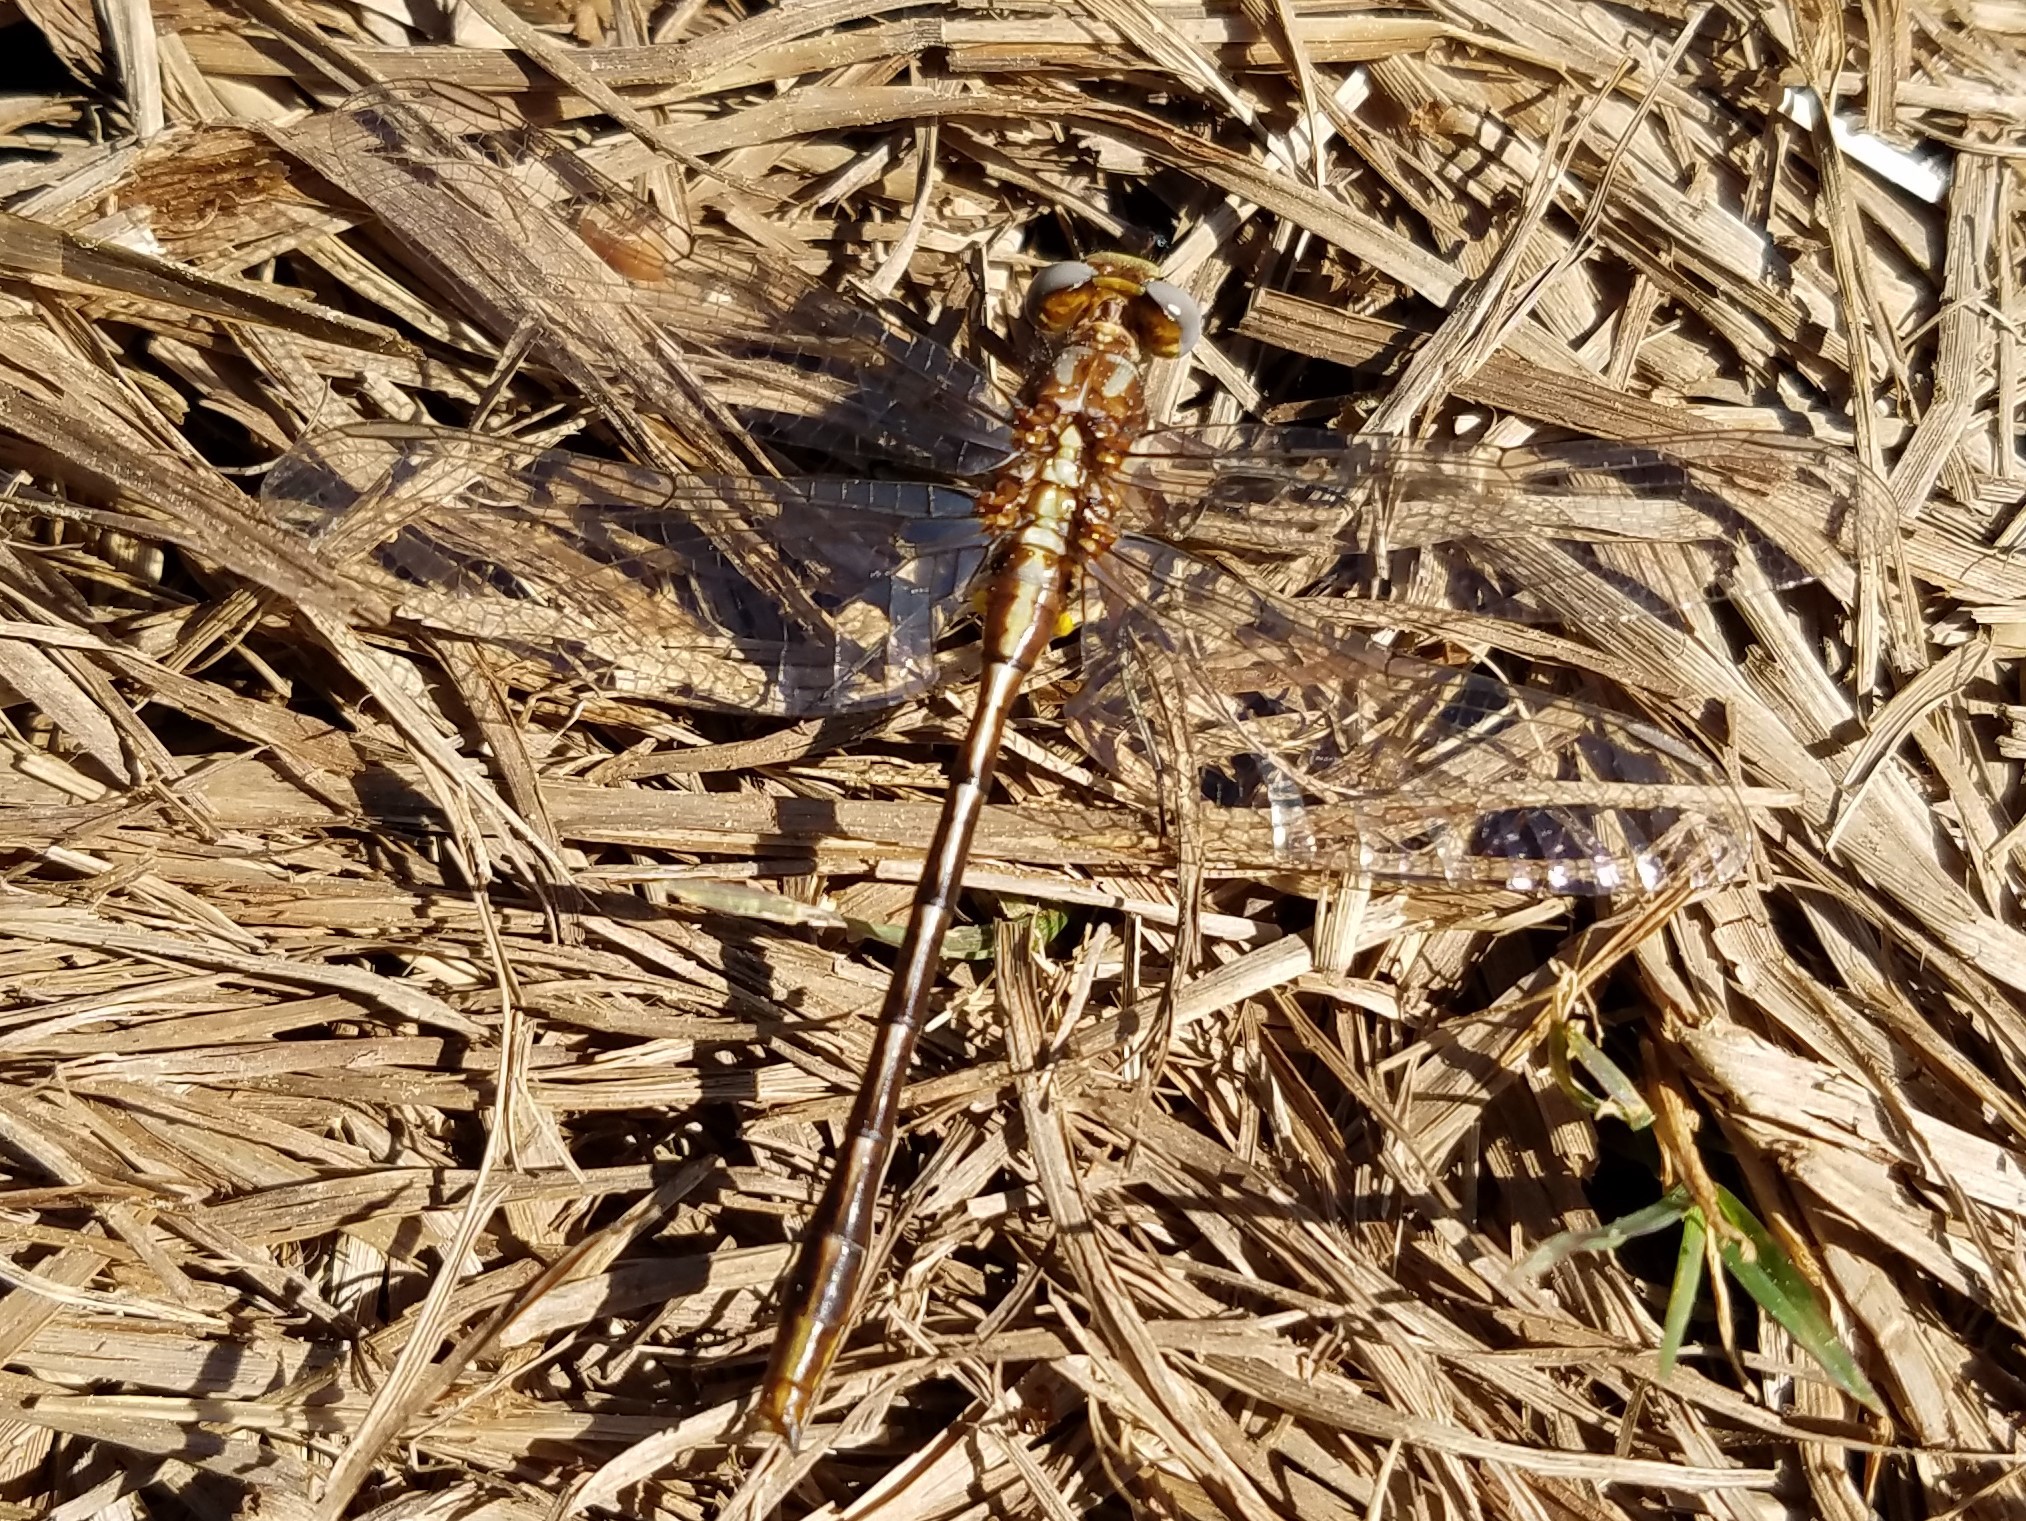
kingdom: Animalia
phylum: Arthropoda
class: Insecta
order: Odonata
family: Gomphidae
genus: Phanogomphus
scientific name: Phanogomphus exilis
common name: Lancet clubtail
